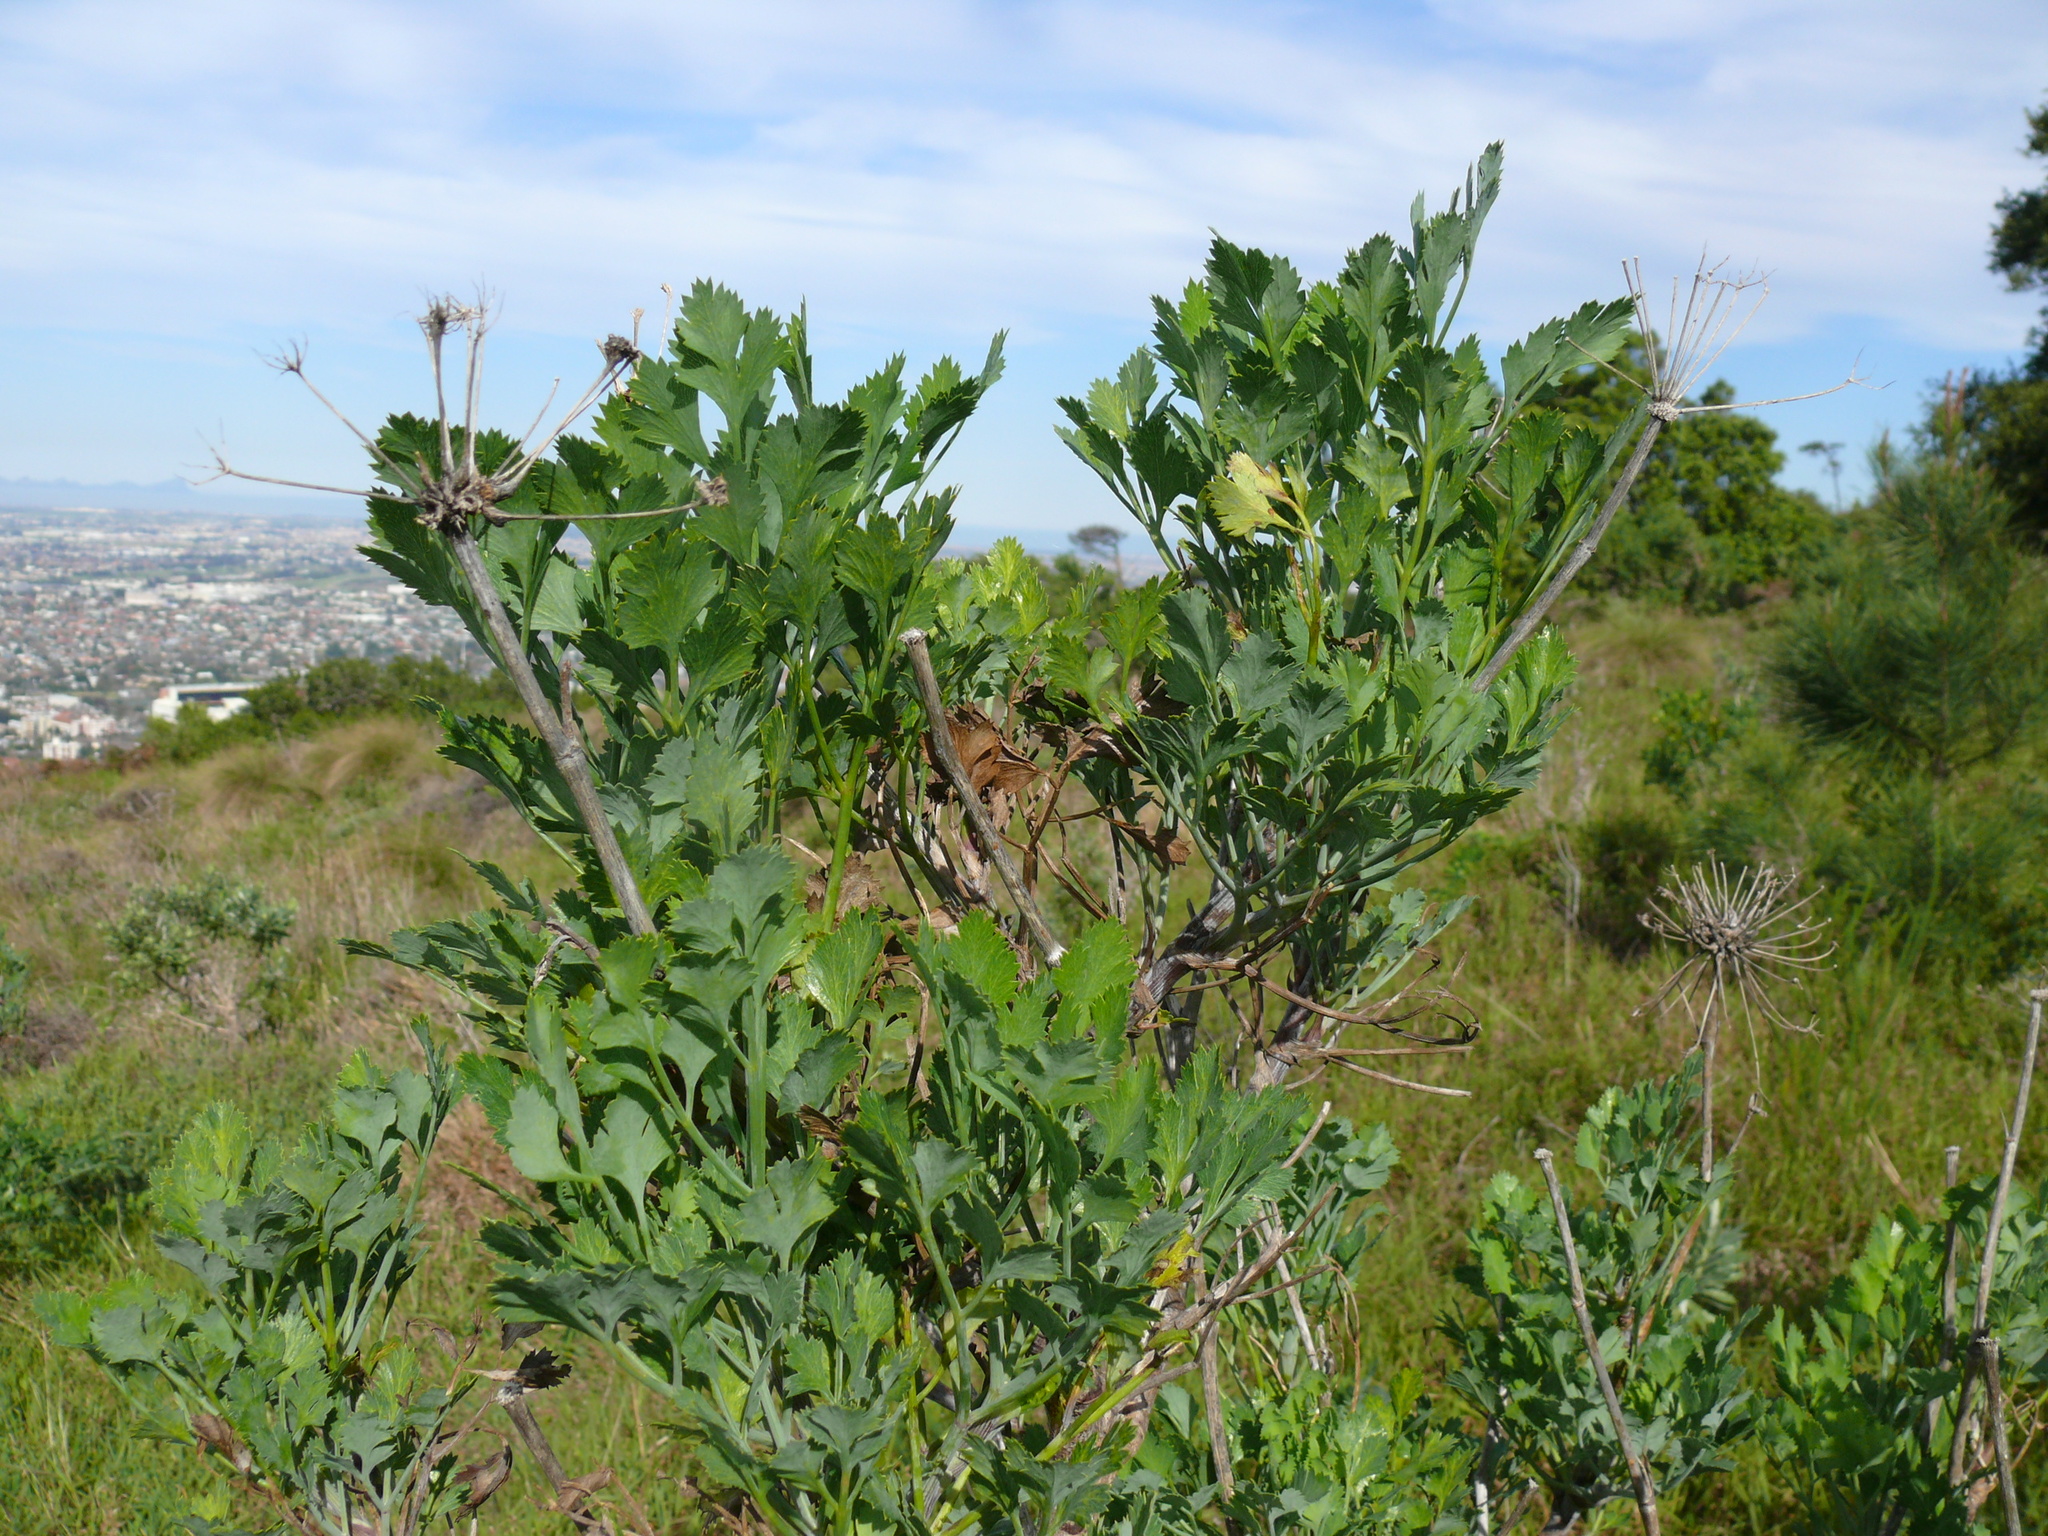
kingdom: Plantae
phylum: Tracheophyta
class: Magnoliopsida
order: Apiales
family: Apiaceae
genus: Notobubon
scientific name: Notobubon galbanum
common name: Blisterbush
